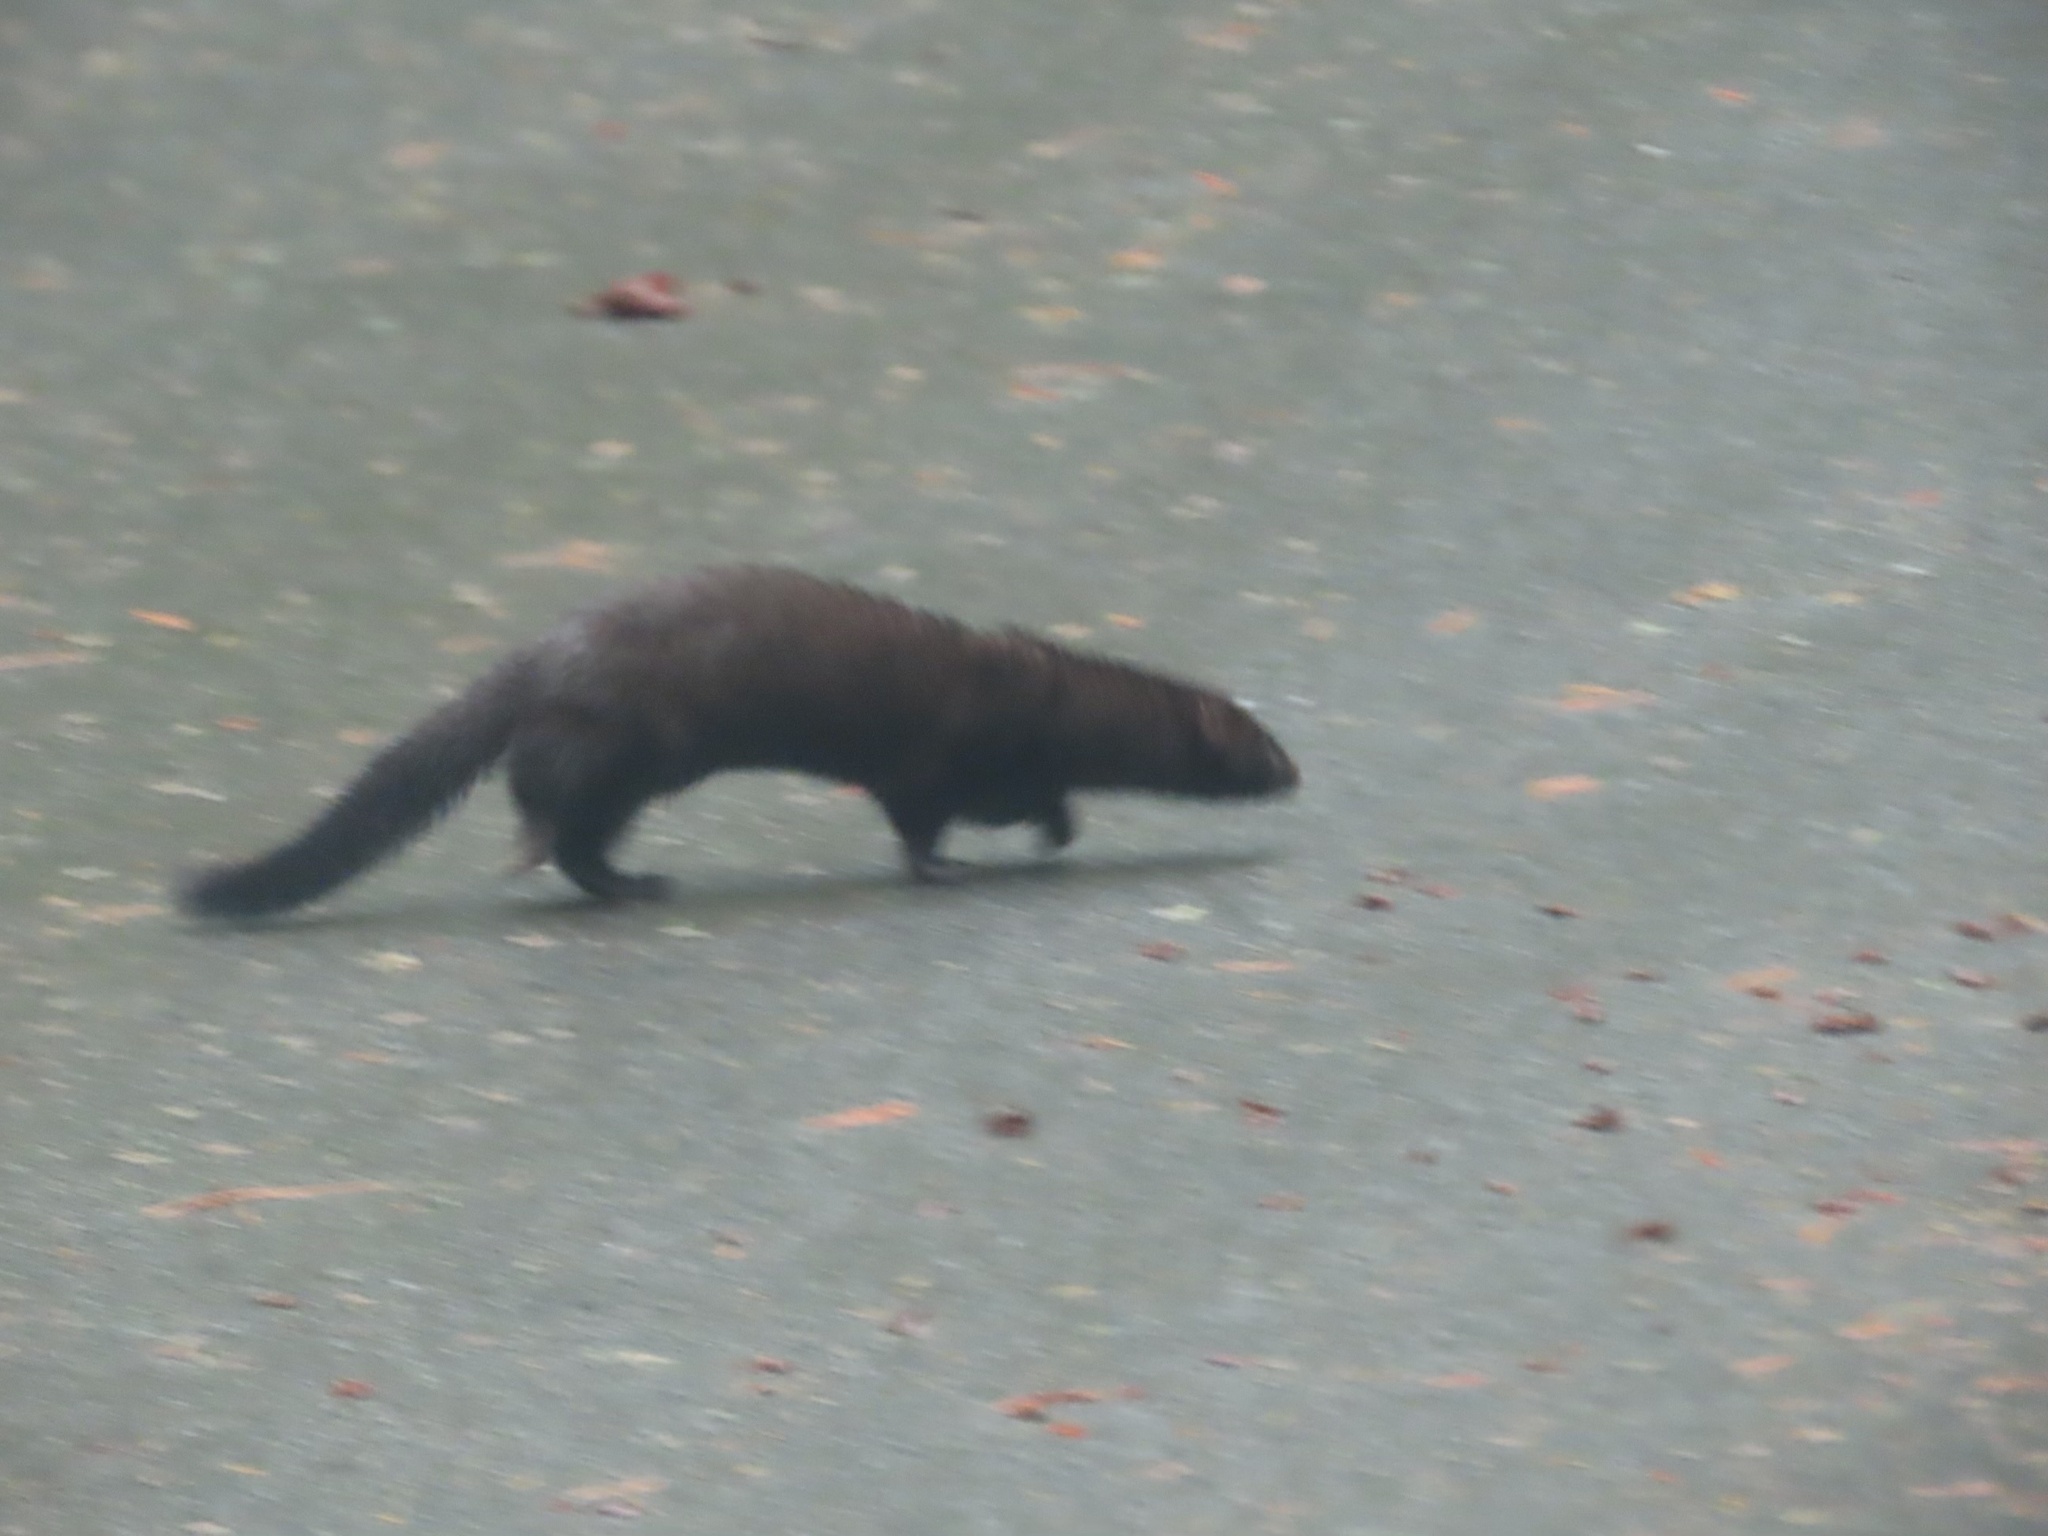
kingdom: Animalia
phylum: Chordata
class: Mammalia
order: Carnivora
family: Mustelidae
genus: Mustela
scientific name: Mustela
